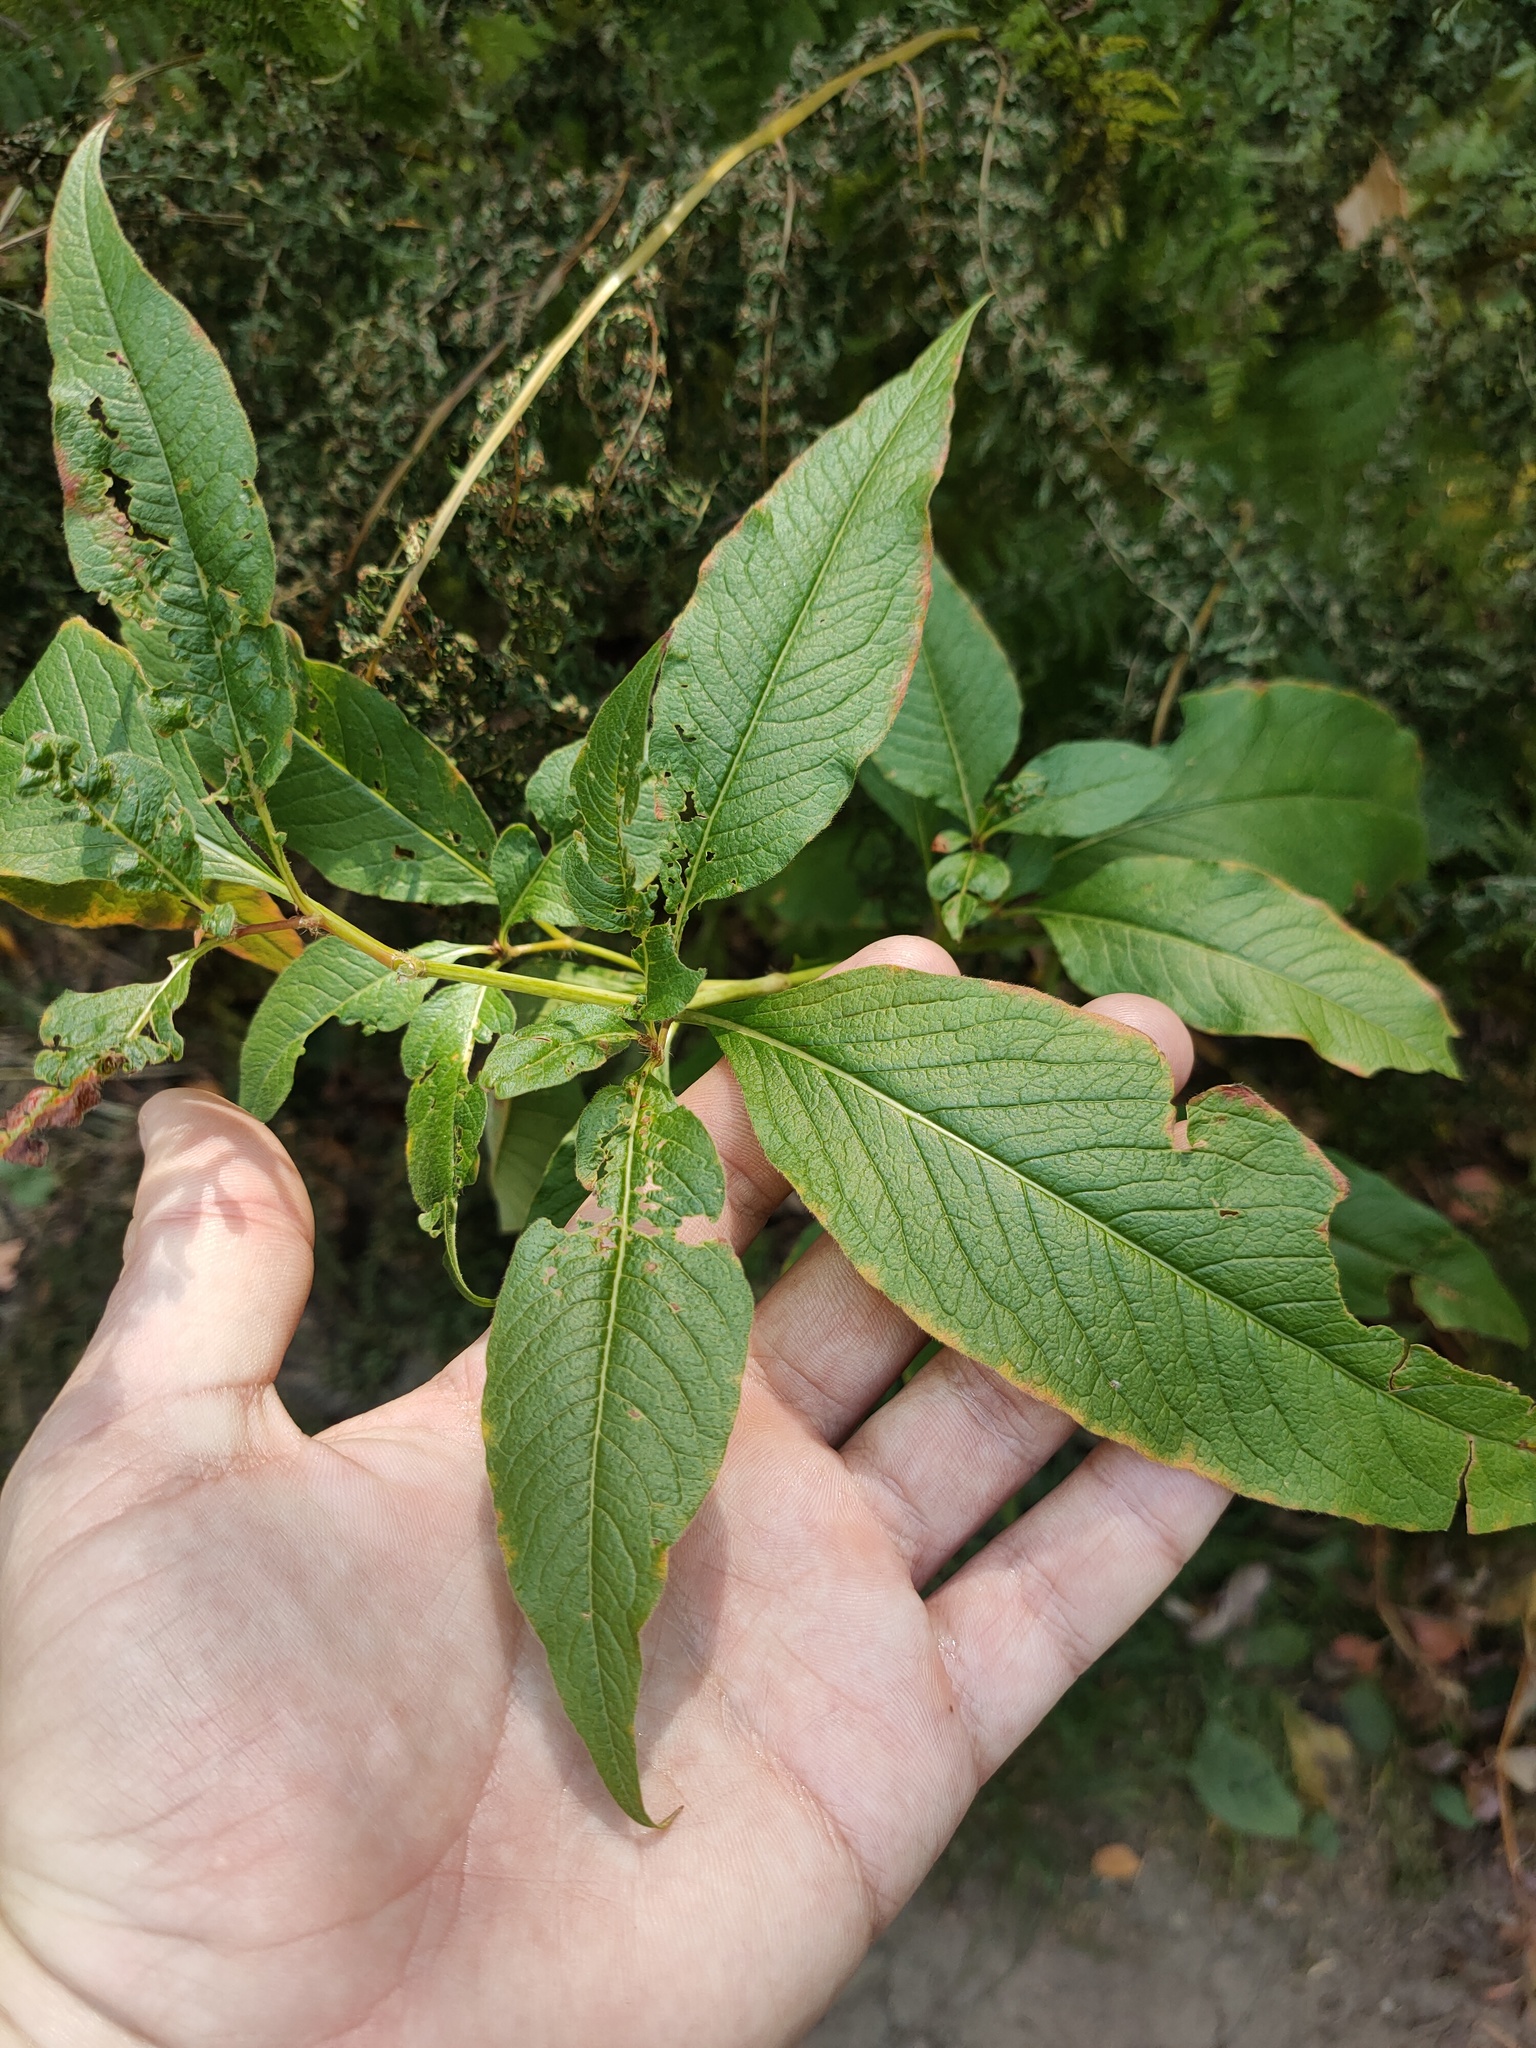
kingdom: Plantae
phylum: Tracheophyta
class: Magnoliopsida
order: Caryophyllales
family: Polygonaceae
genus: Koenigia
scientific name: Koenigia alpina
